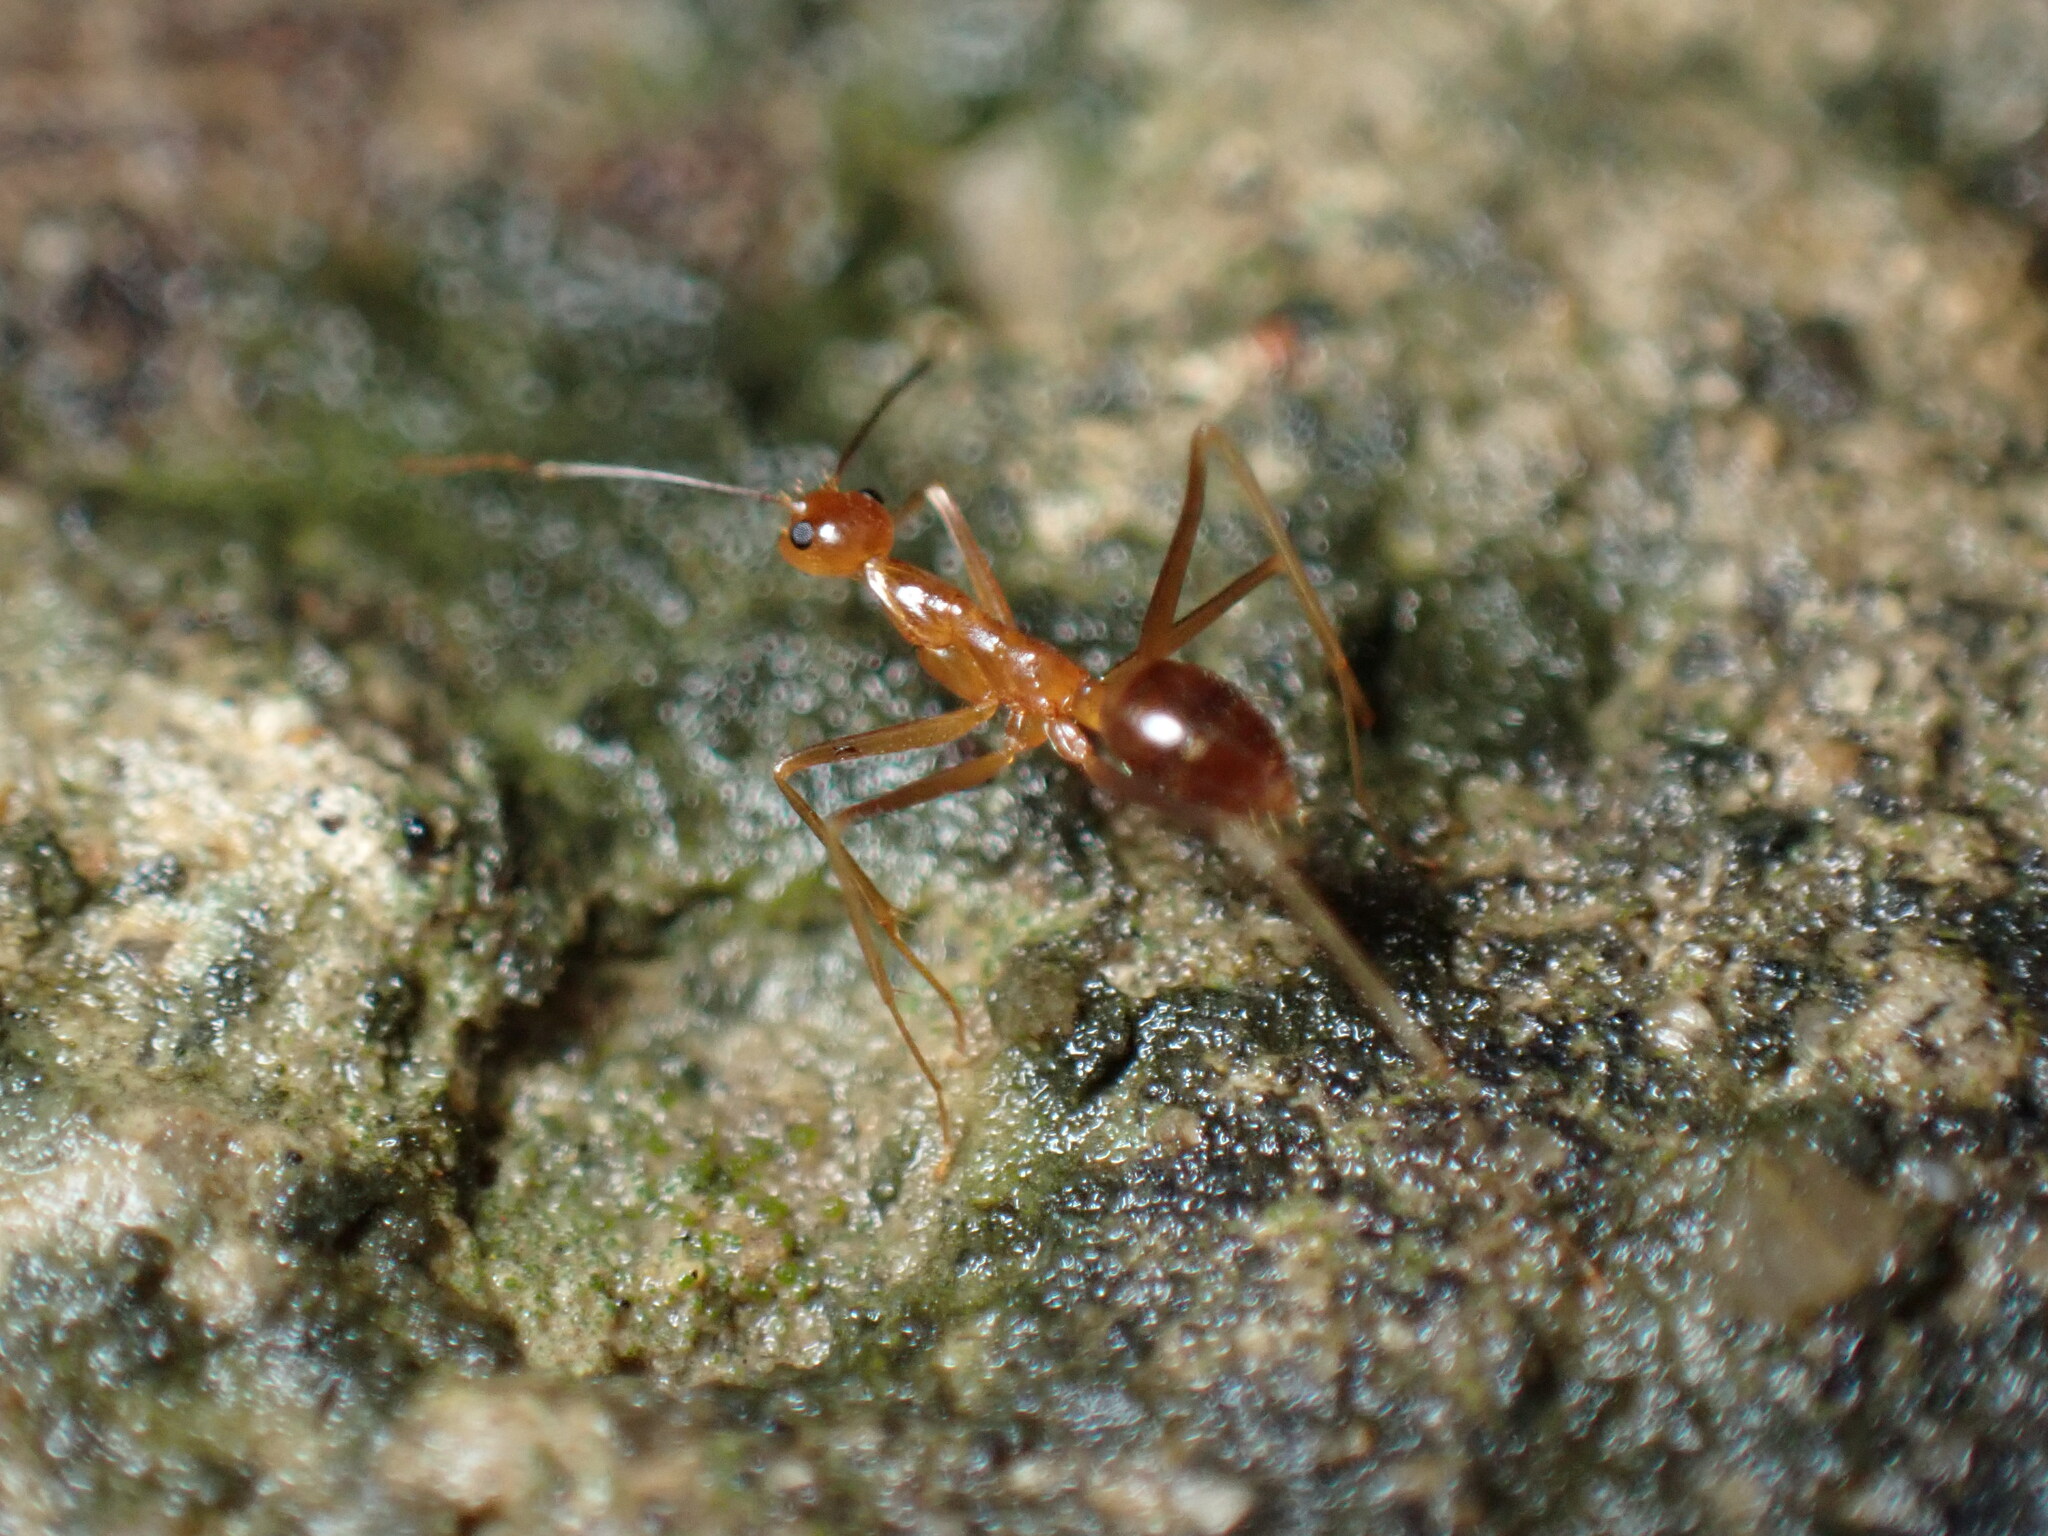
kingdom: Animalia
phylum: Arthropoda
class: Insecta
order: Hymenoptera
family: Formicidae
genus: Anoplolepis
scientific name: Anoplolepis gracilipes
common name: Ant
